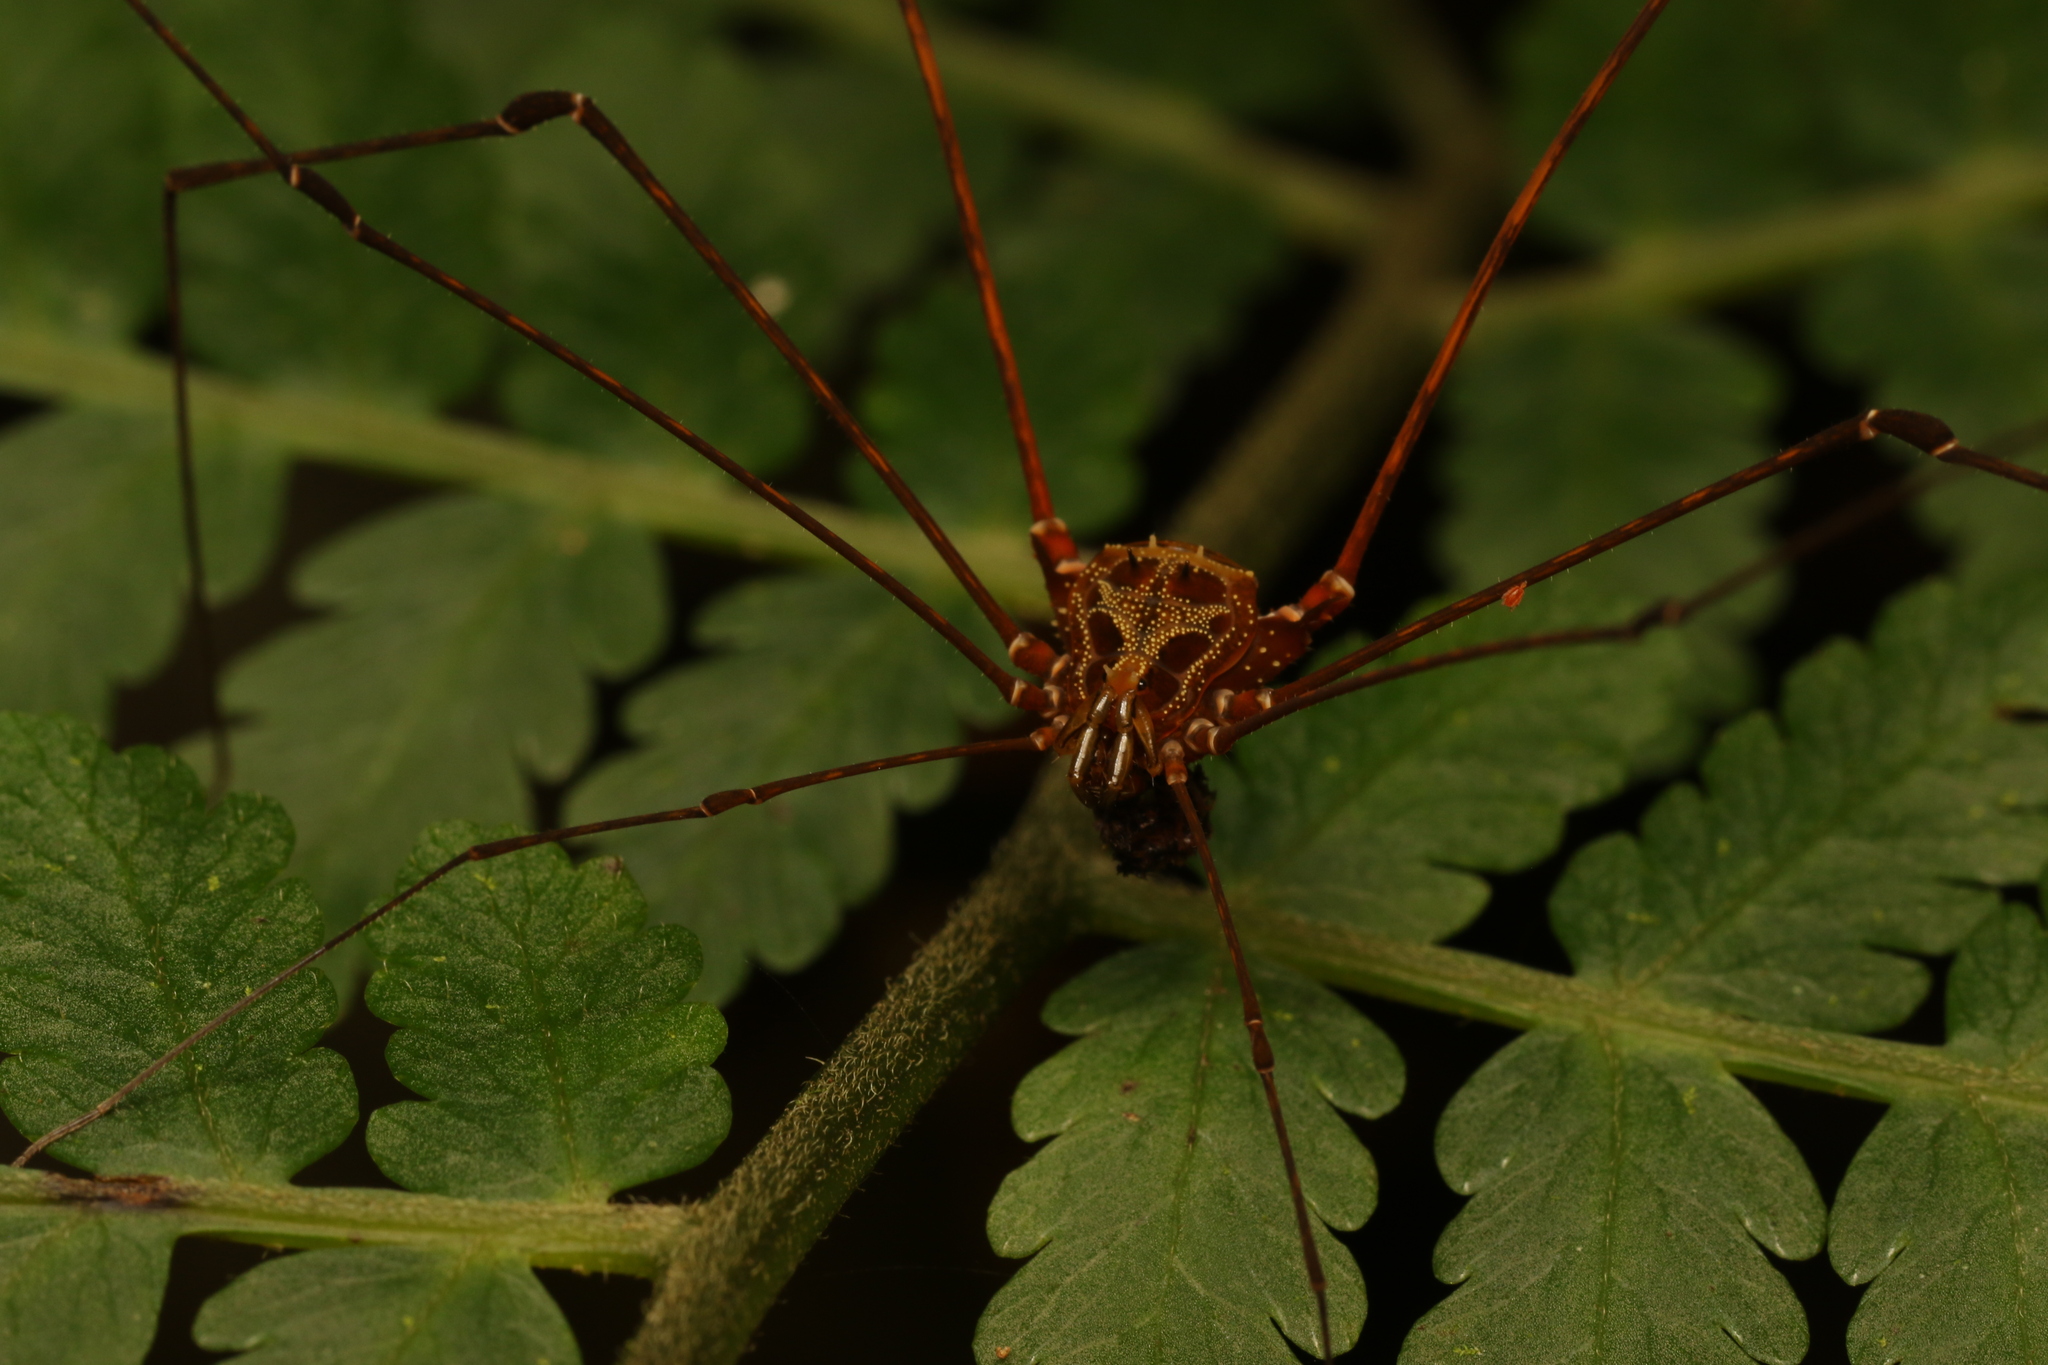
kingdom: Animalia
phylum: Arthropoda
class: Arachnida
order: Opiliones
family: Gonyleptidae
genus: Promitobates
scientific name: Promitobates intermedius
